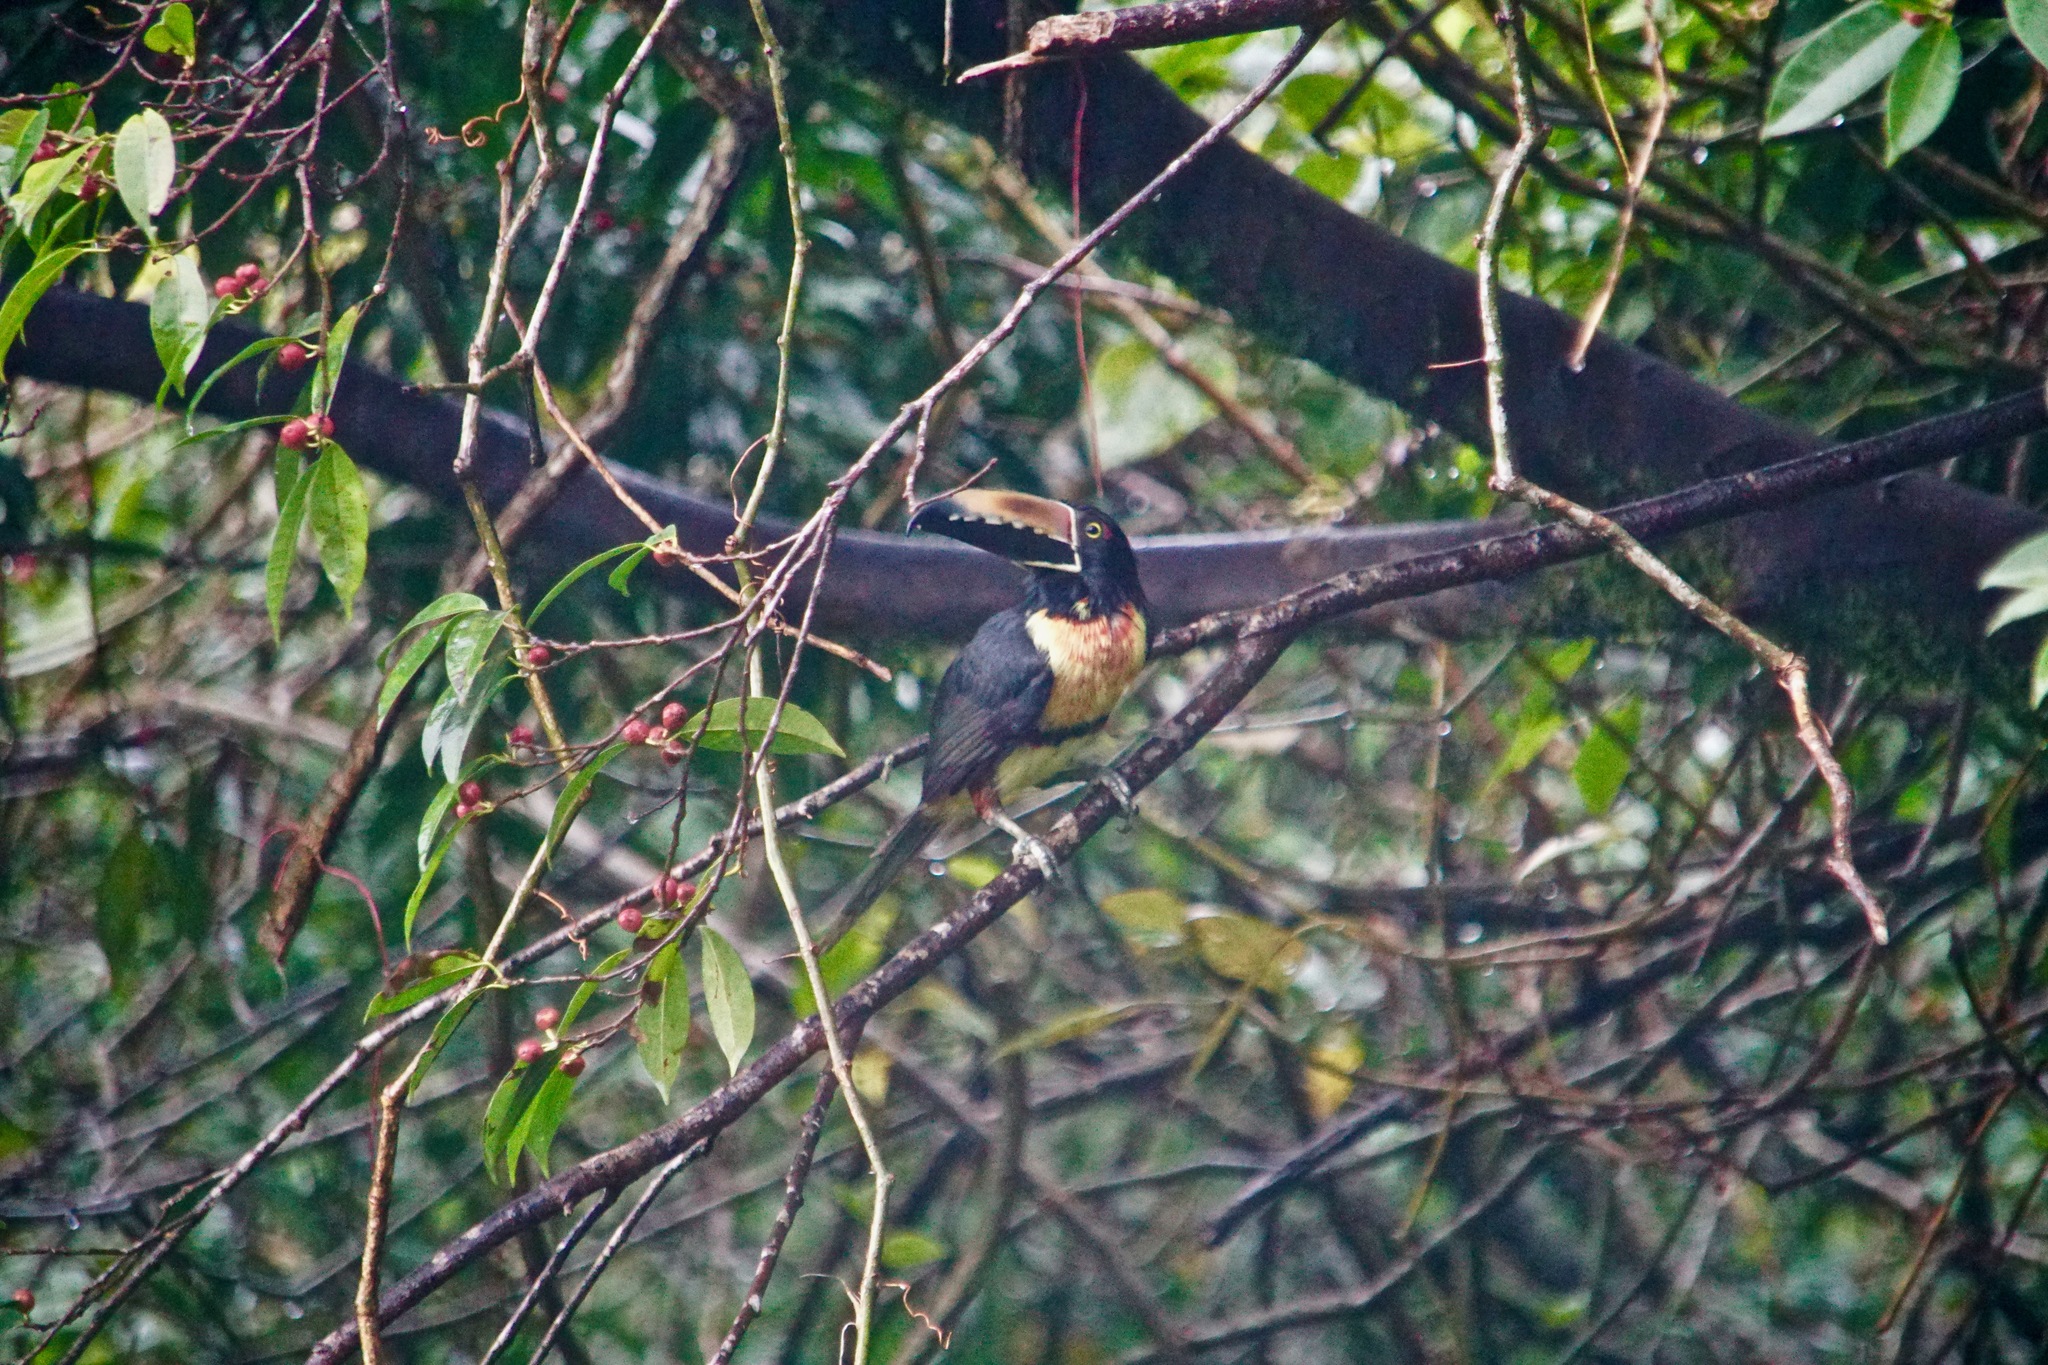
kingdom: Animalia
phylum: Chordata
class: Aves
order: Piciformes
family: Ramphastidae
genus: Pteroglossus
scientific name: Pteroglossus torquatus
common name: Collared aracari
